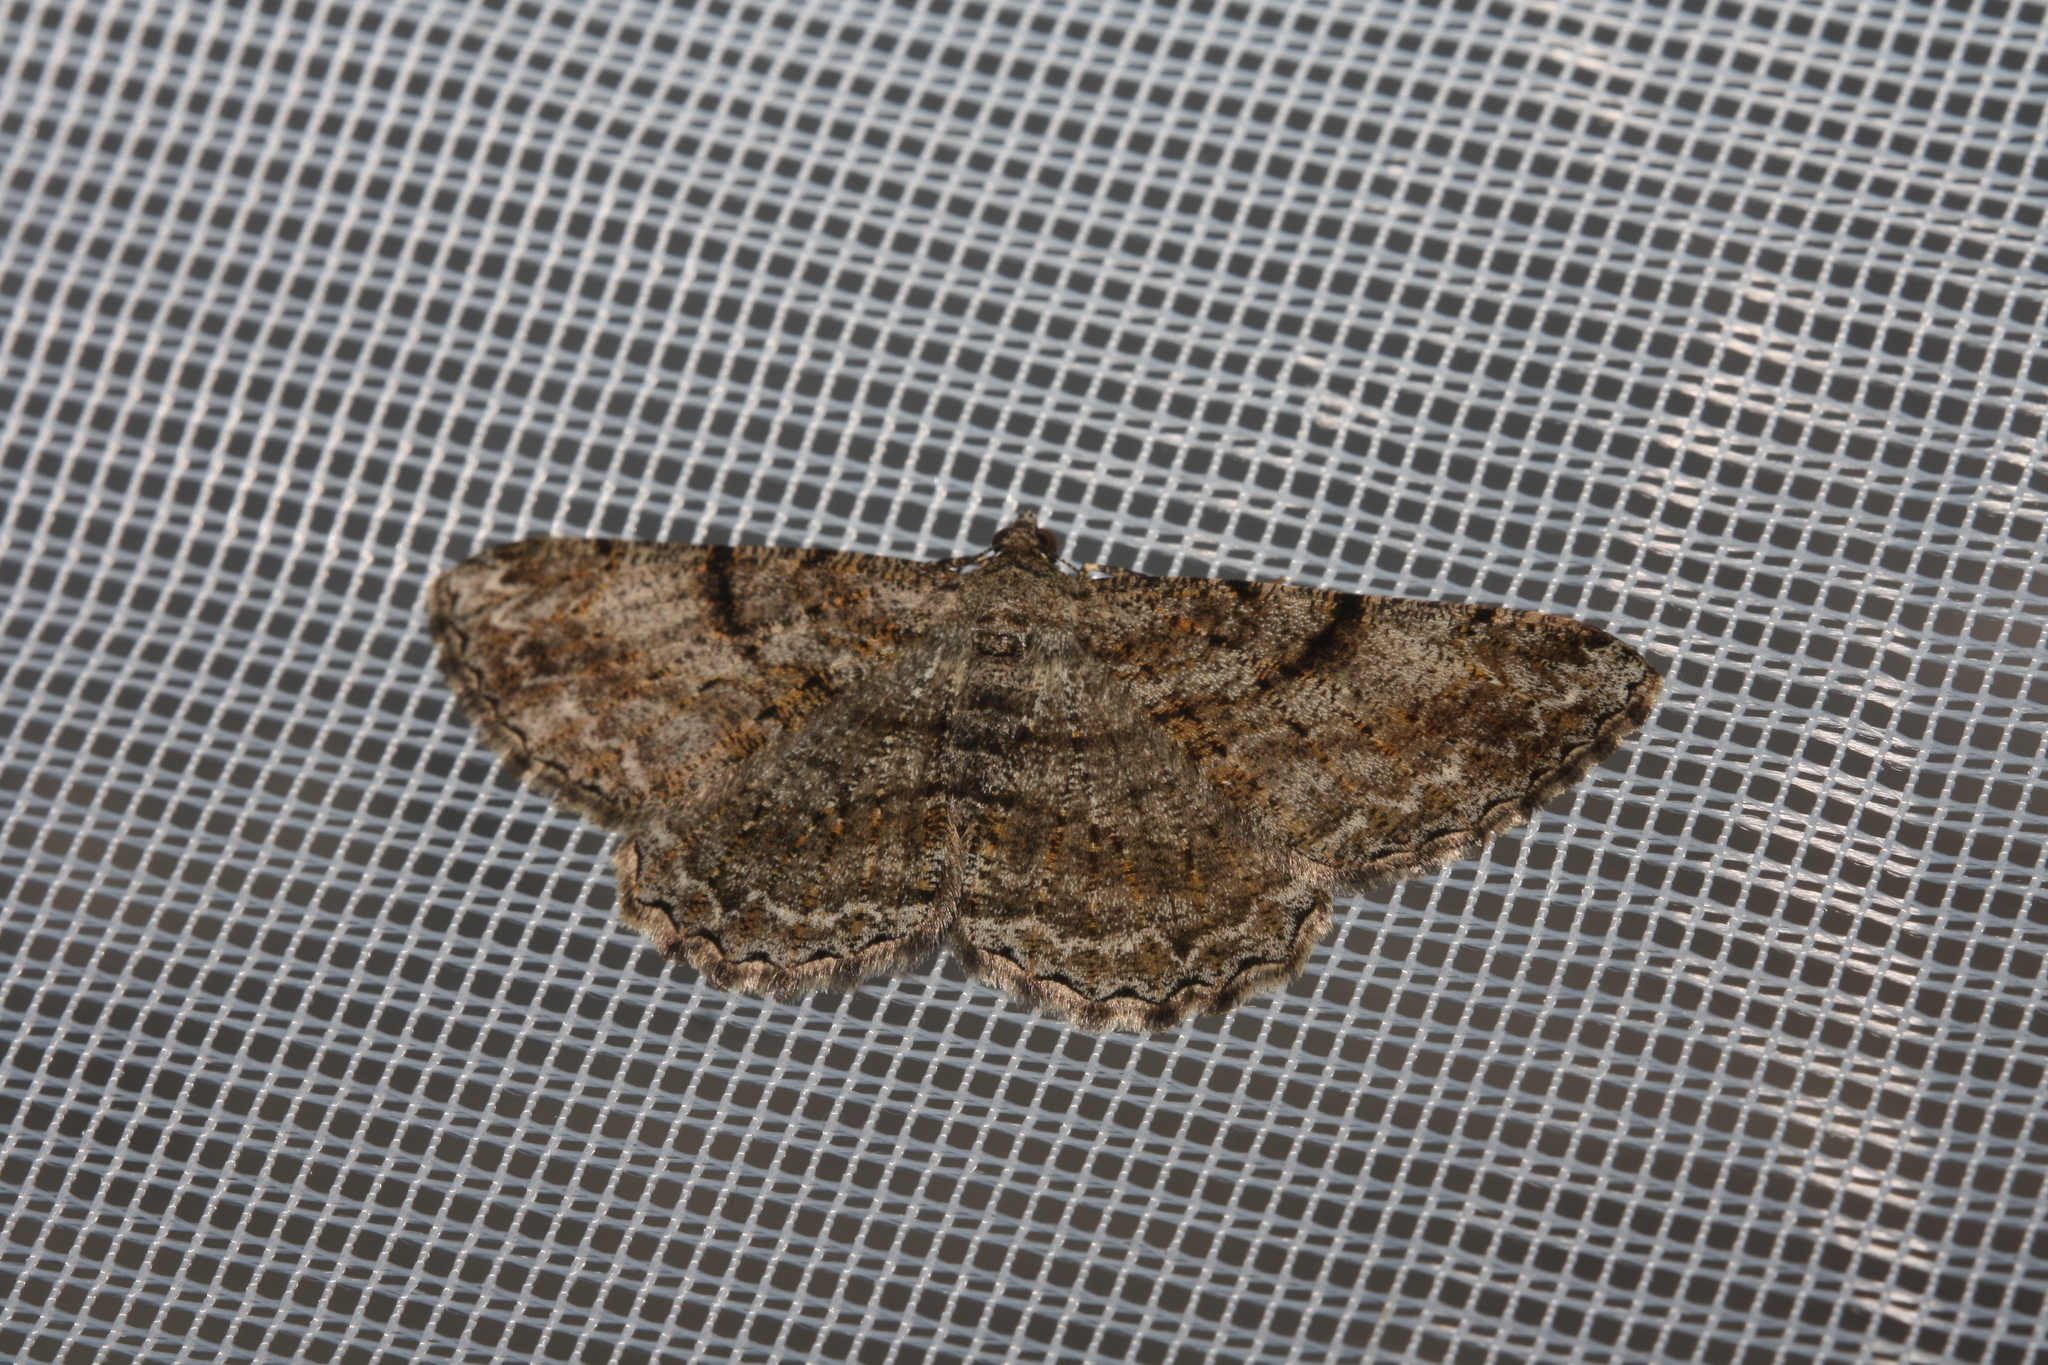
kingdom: Animalia
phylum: Arthropoda
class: Insecta
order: Lepidoptera
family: Geometridae
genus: Peribatodes
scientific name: Peribatodes rhomboidaria
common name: Willow beauty
